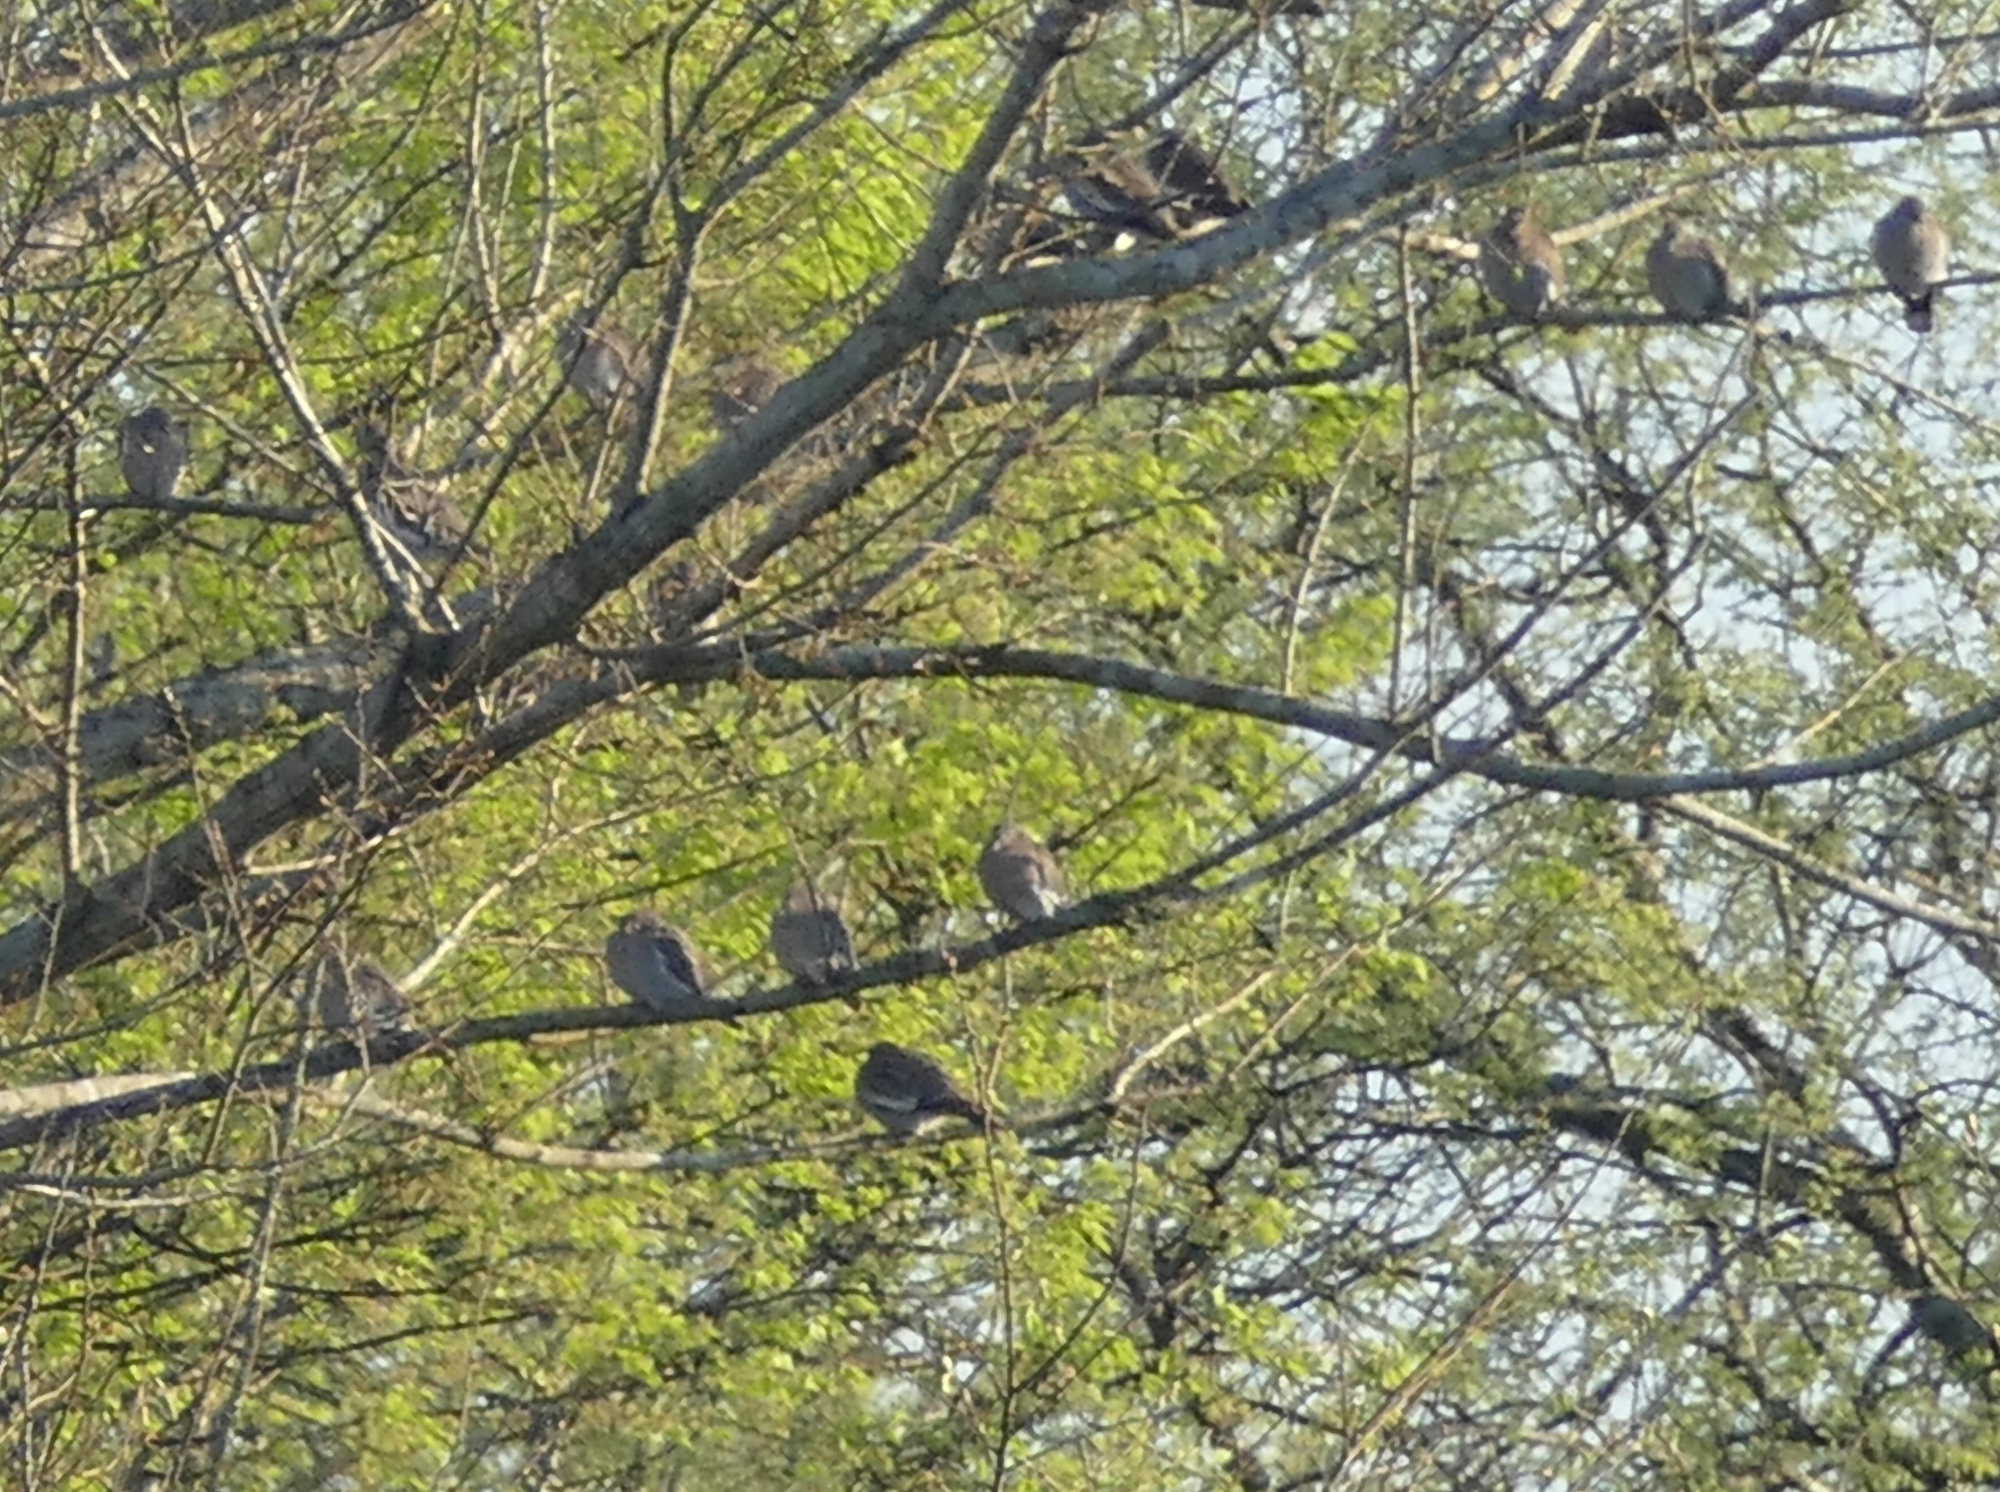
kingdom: Animalia
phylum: Chordata
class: Aves
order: Columbiformes
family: Columbidae
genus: Zenaida
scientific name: Zenaida asiatica
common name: White-winged dove
